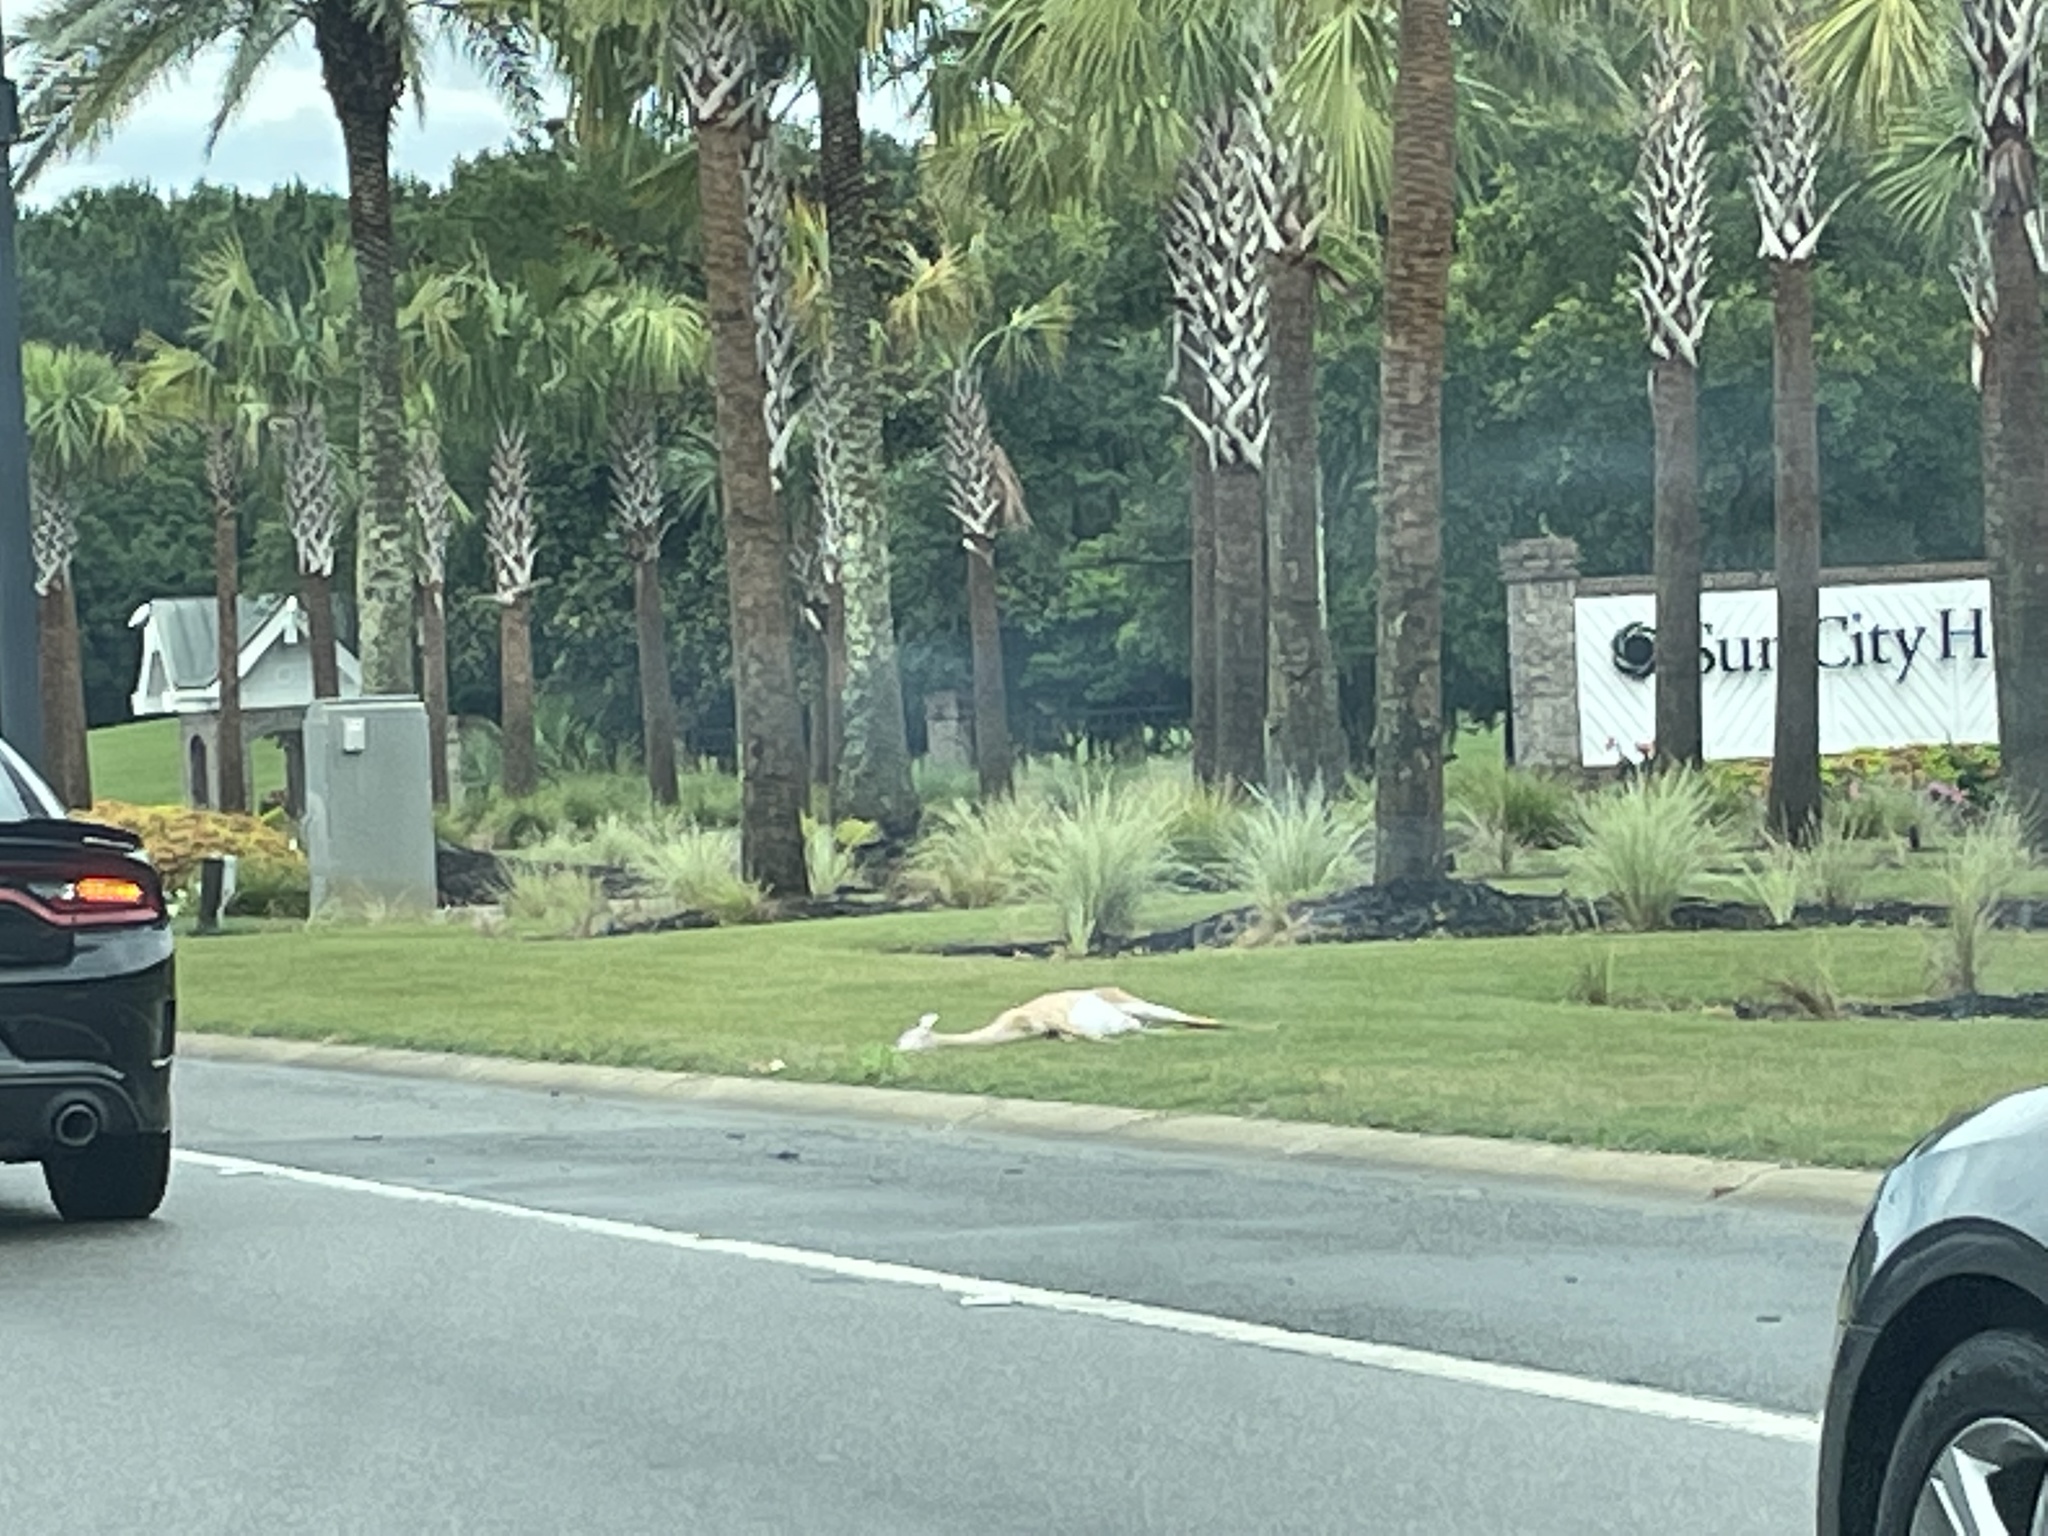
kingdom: Animalia
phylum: Chordata
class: Mammalia
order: Artiodactyla
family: Cervidae
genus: Odocoileus
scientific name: Odocoileus virginianus
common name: White-tailed deer
